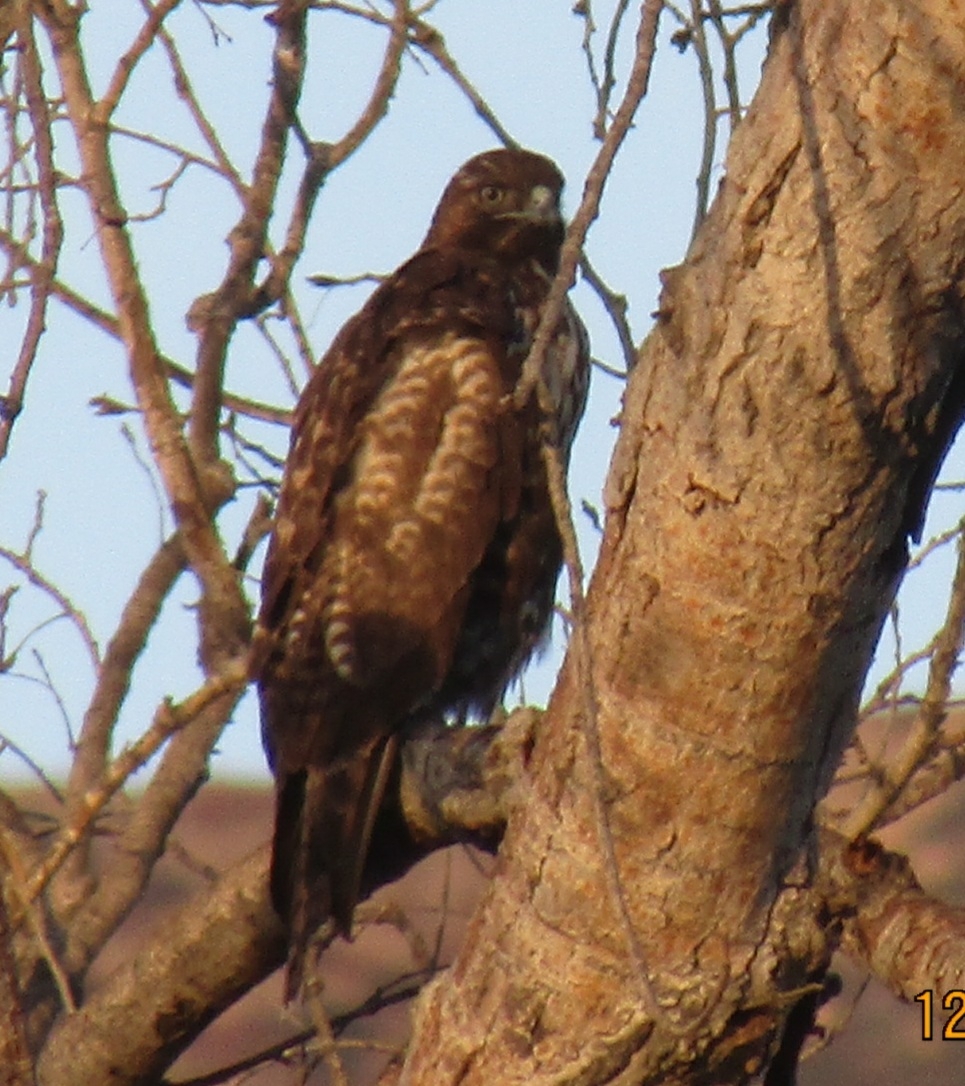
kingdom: Animalia
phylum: Chordata
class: Aves
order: Accipitriformes
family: Accipitridae
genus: Buteo
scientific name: Buteo jamaicensis
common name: Red-tailed hawk
